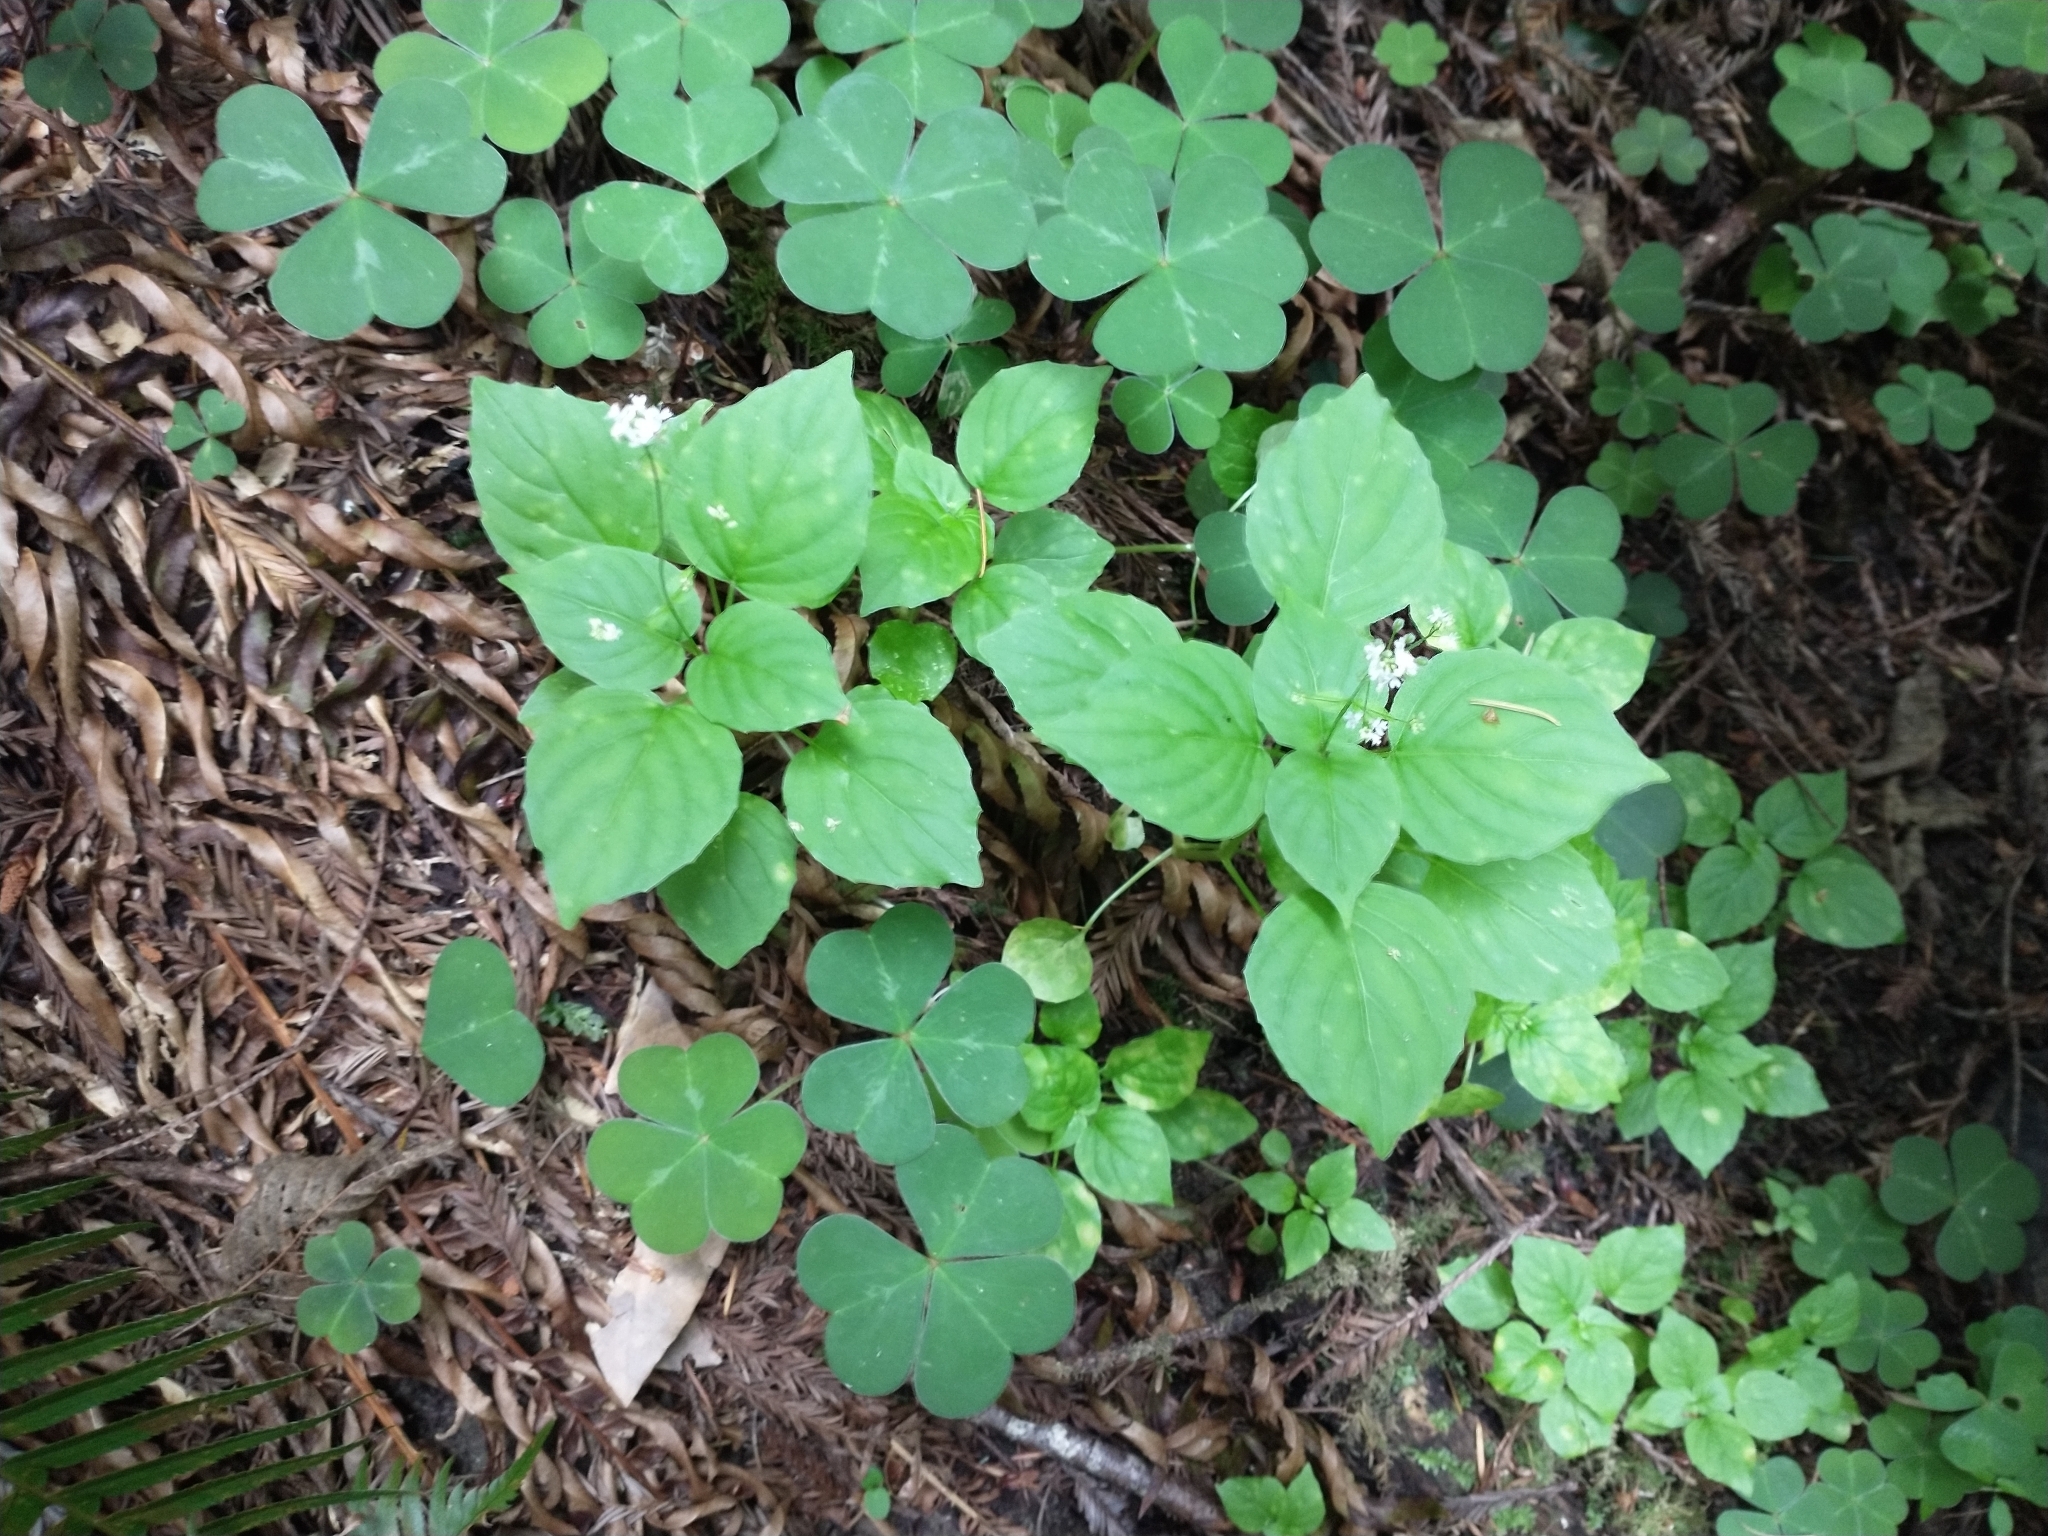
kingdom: Plantae
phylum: Tracheophyta
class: Magnoliopsida
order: Myrtales
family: Onagraceae
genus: Circaea
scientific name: Circaea alpina
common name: Alpine enchanter's-nightshade
